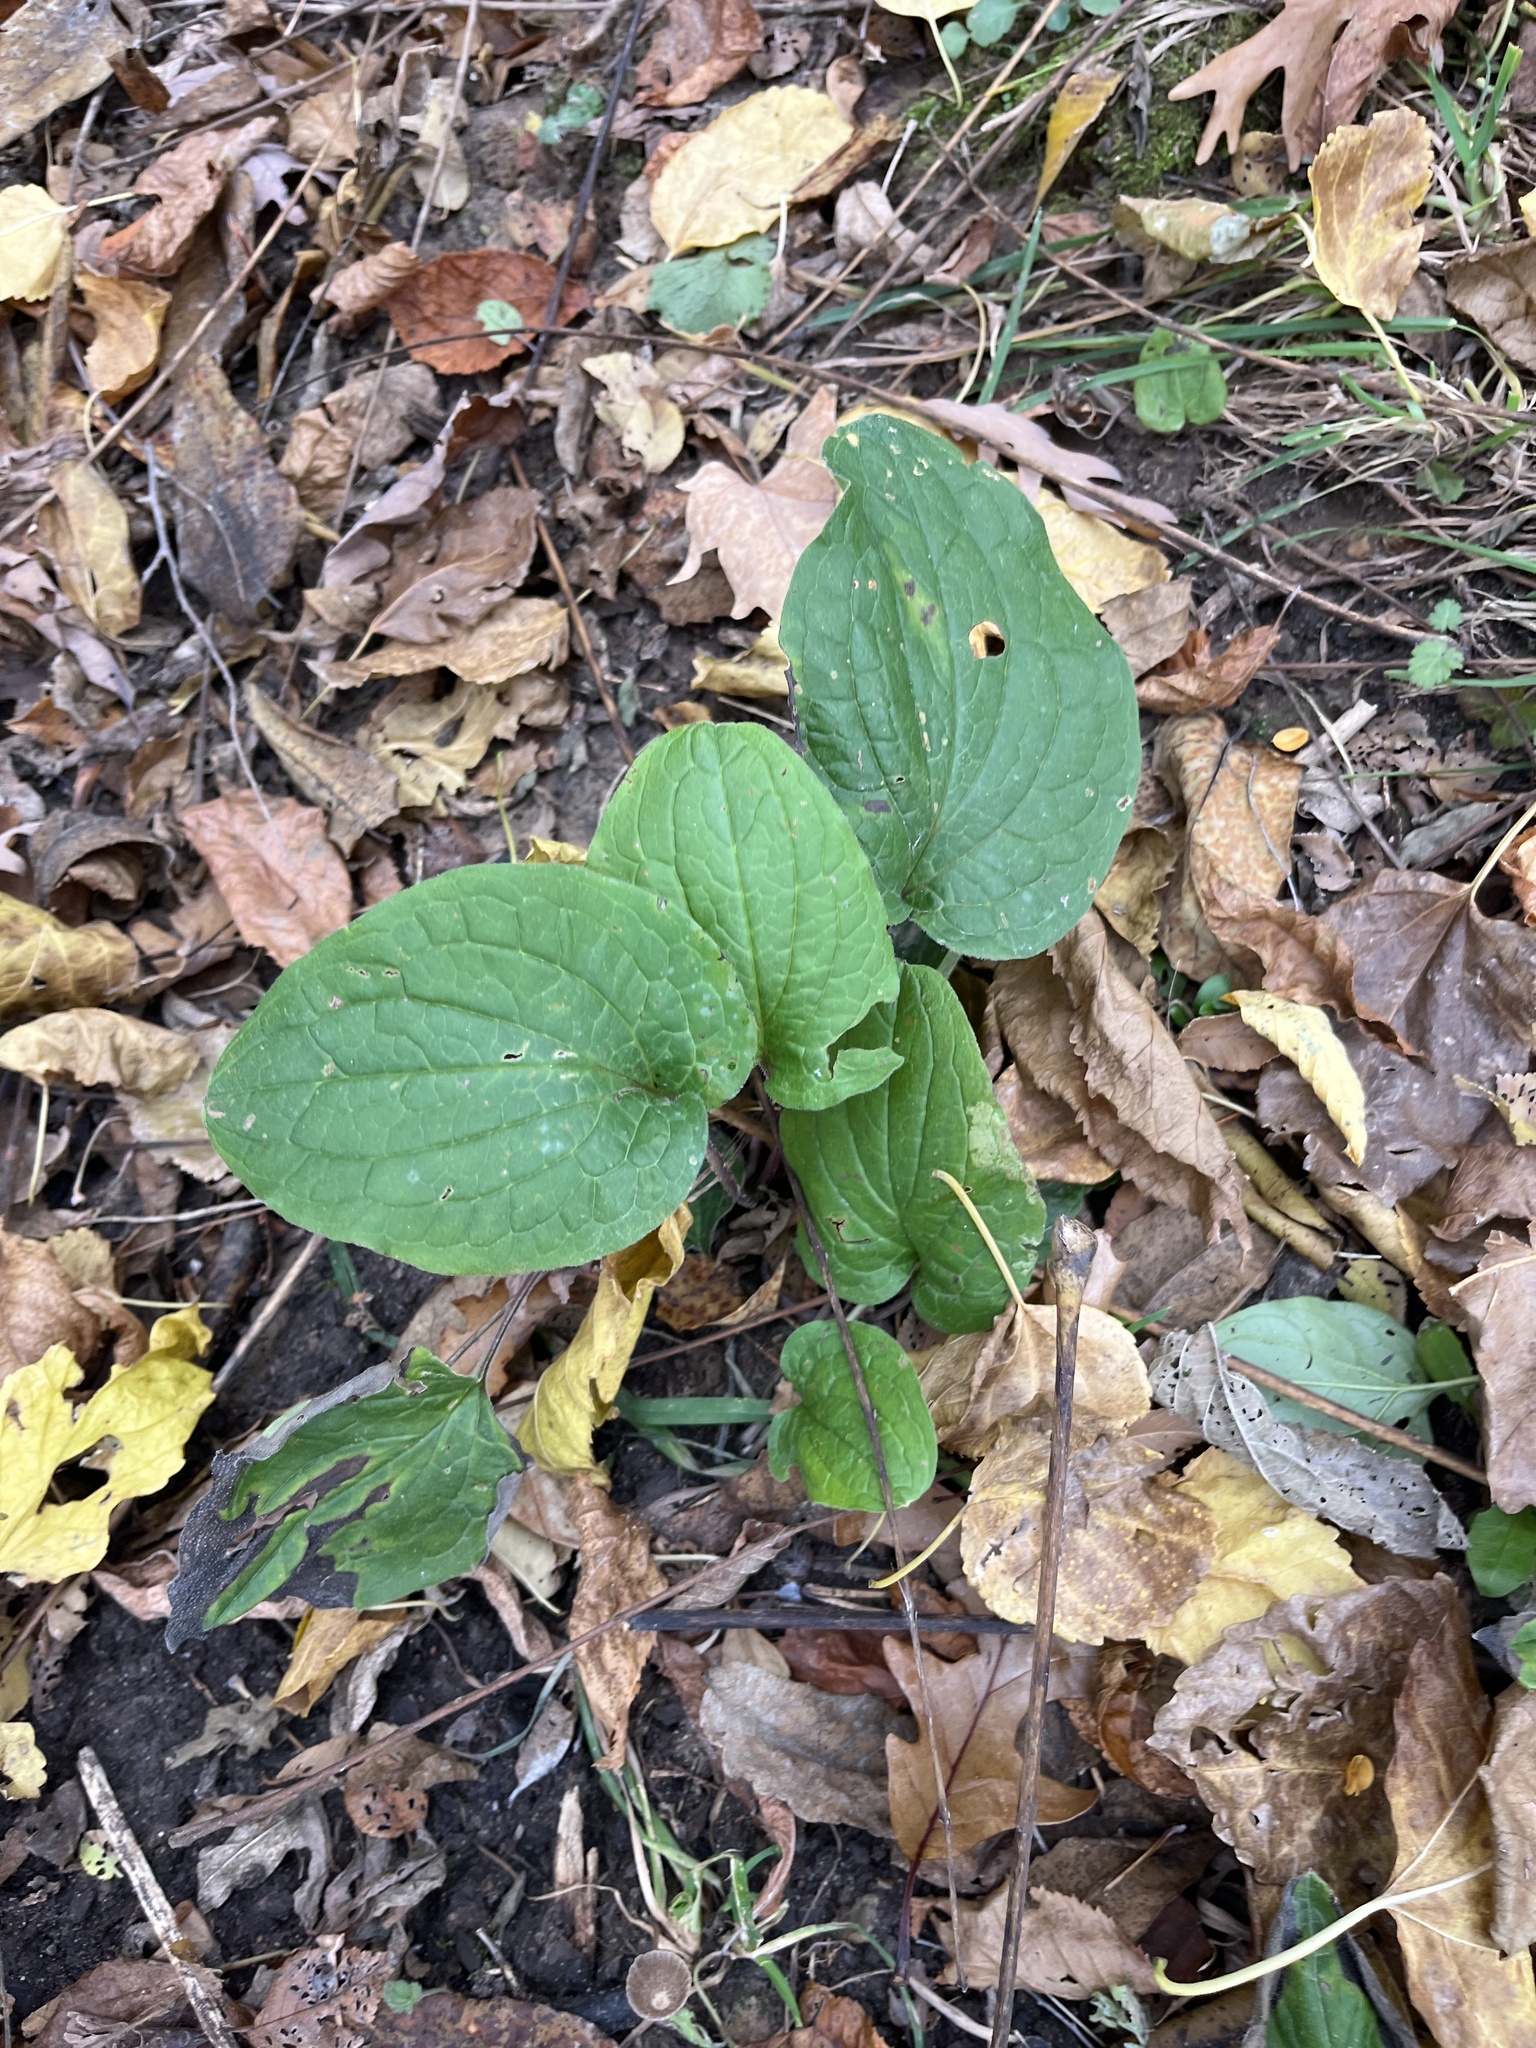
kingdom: Plantae
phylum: Tracheophyta
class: Magnoliopsida
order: Boraginales
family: Boraginaceae
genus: Hackelia
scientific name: Hackelia virginiana
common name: Beggar's-lice
